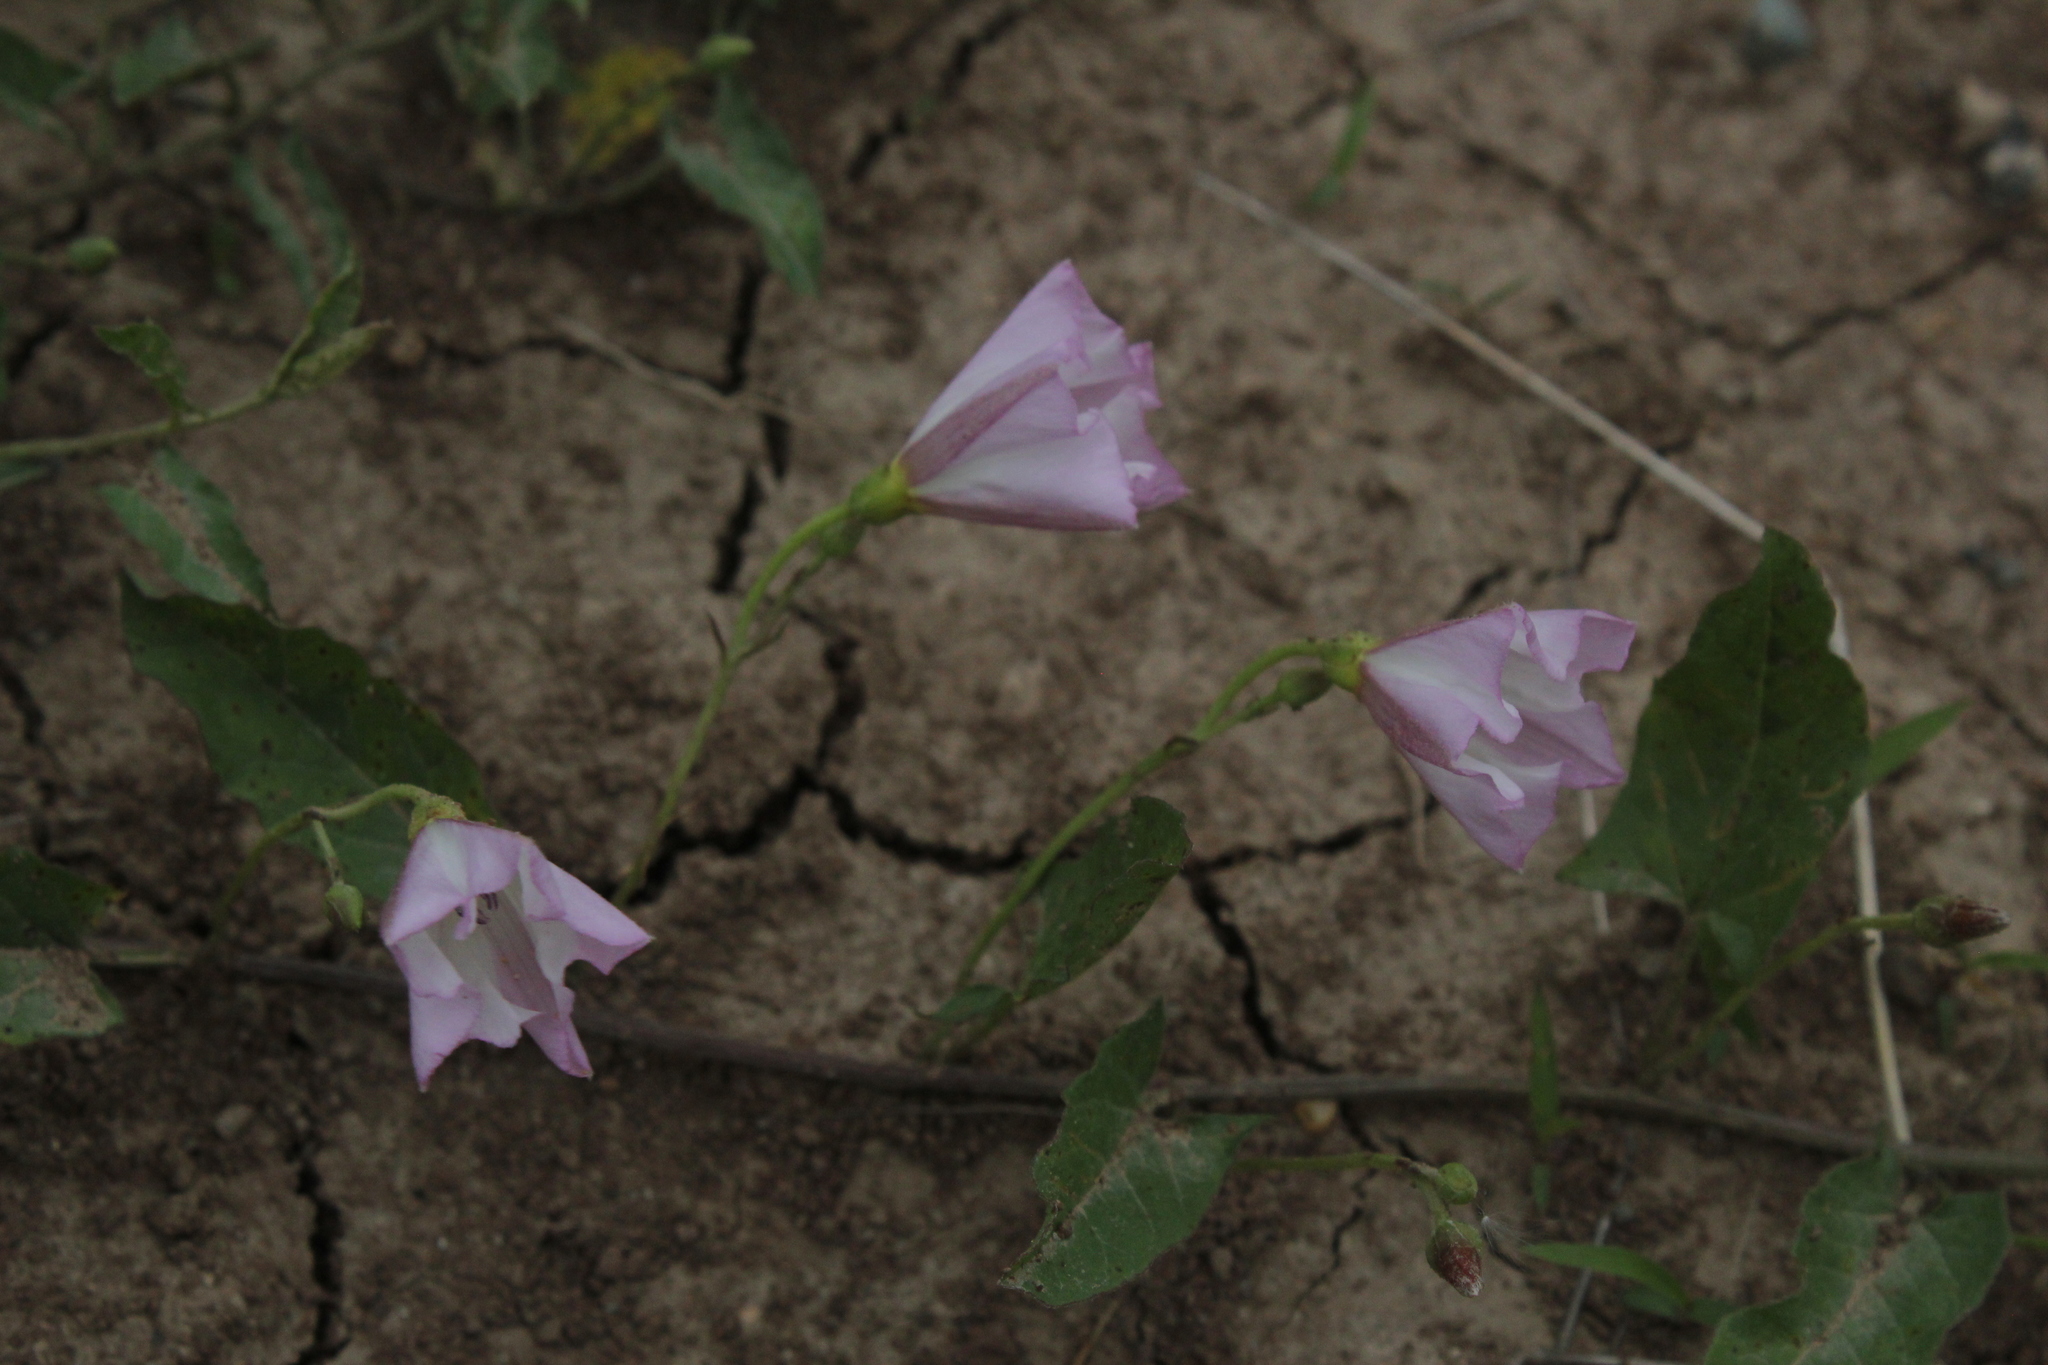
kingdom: Plantae
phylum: Tracheophyta
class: Magnoliopsida
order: Solanales
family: Convolvulaceae
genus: Convolvulus
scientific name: Convolvulus arvensis
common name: Field bindweed
